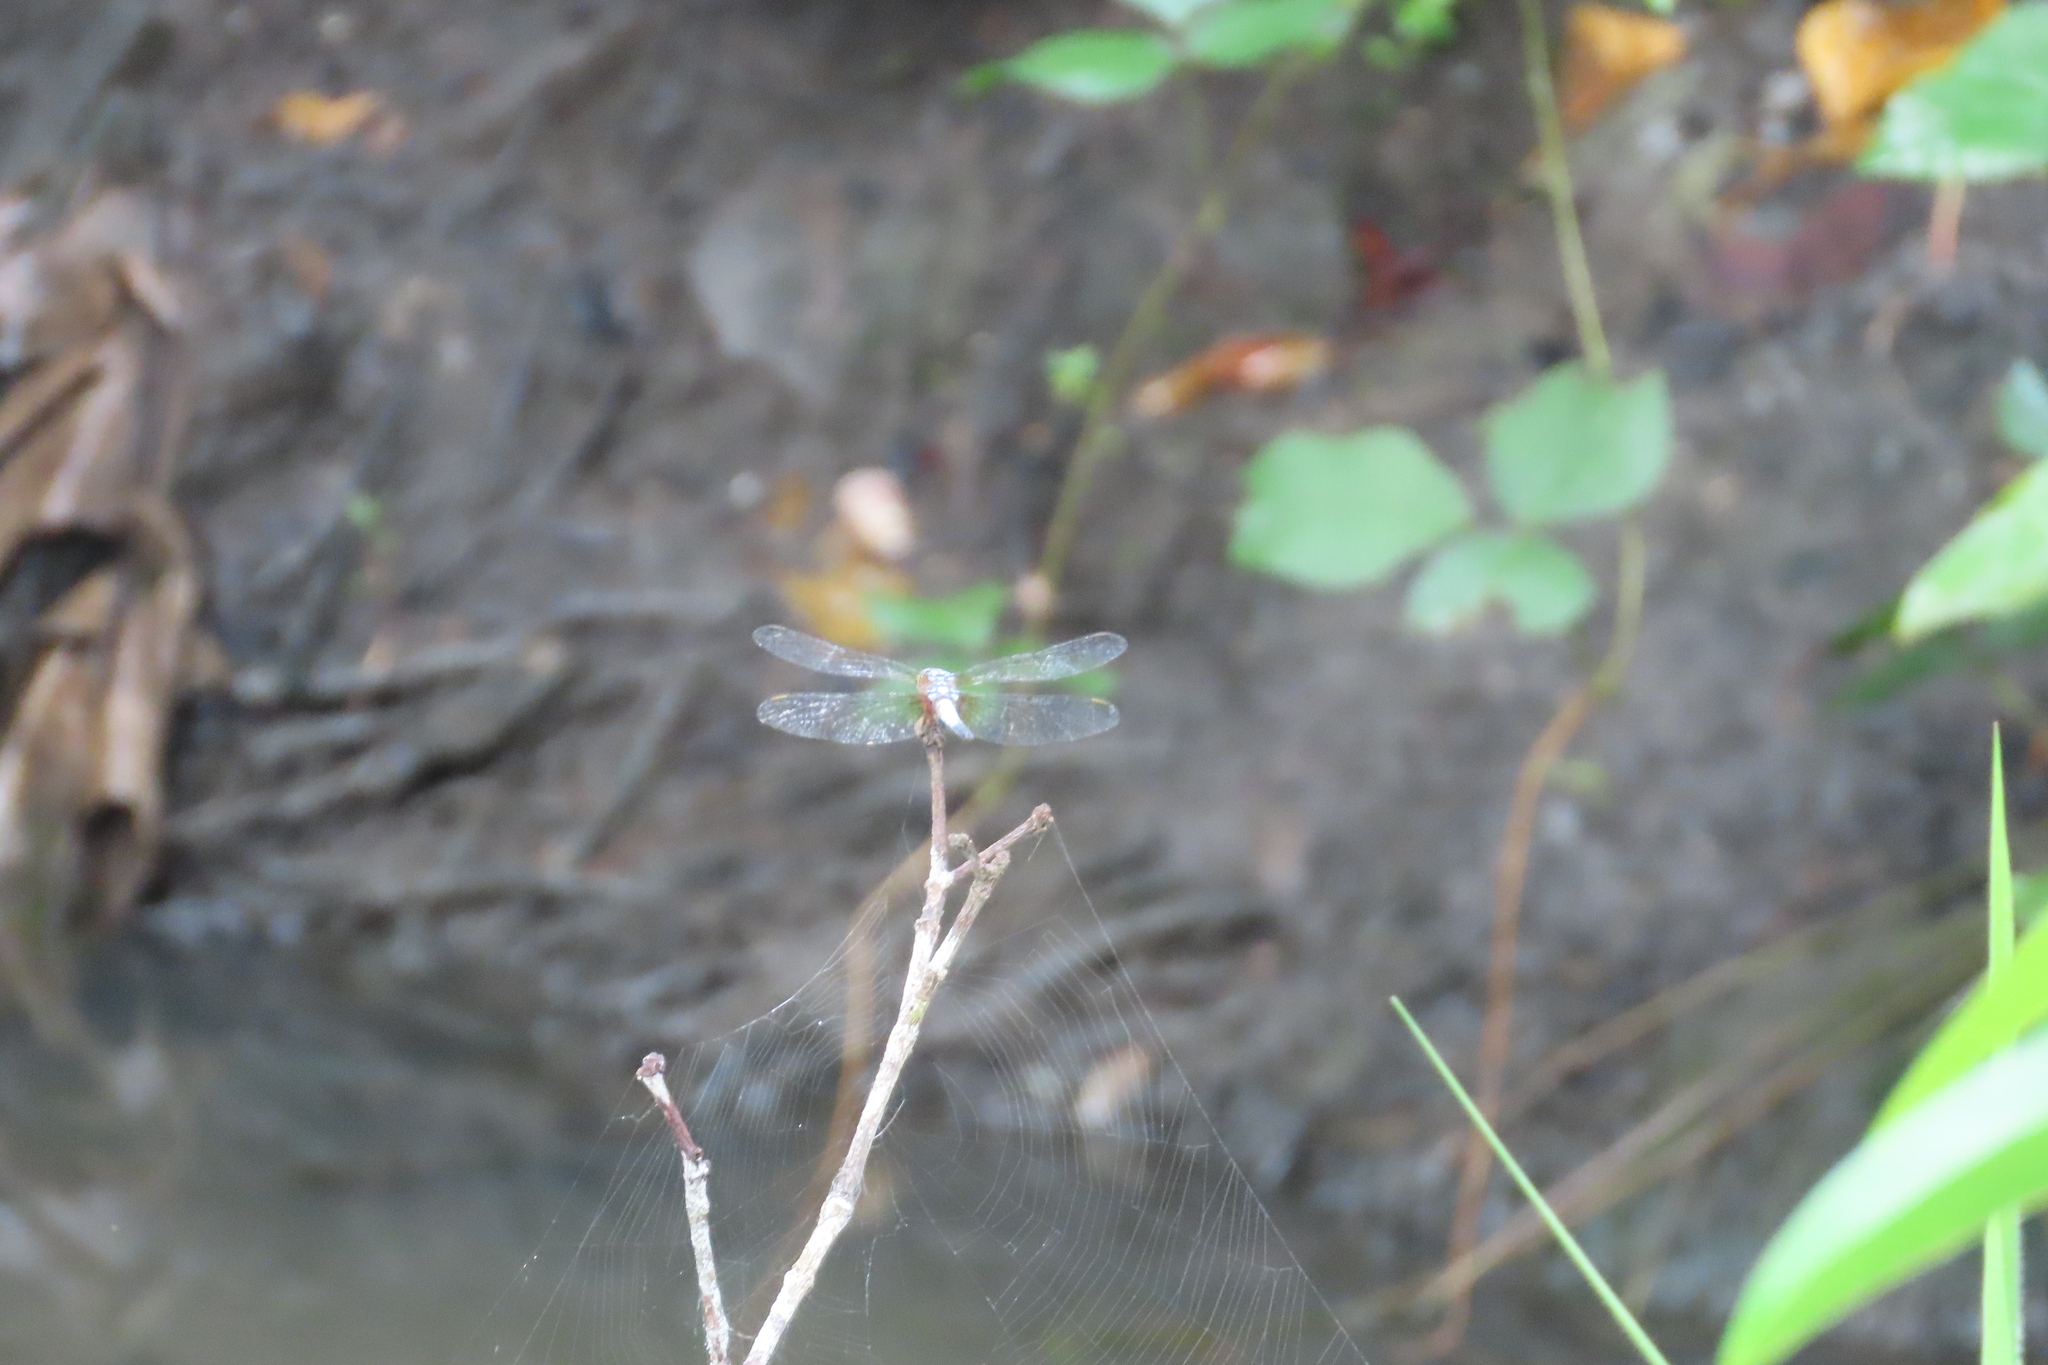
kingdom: Animalia
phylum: Arthropoda
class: Insecta
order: Odonata
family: Libellulidae
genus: Brachydiplax
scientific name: Brachydiplax chalybea
